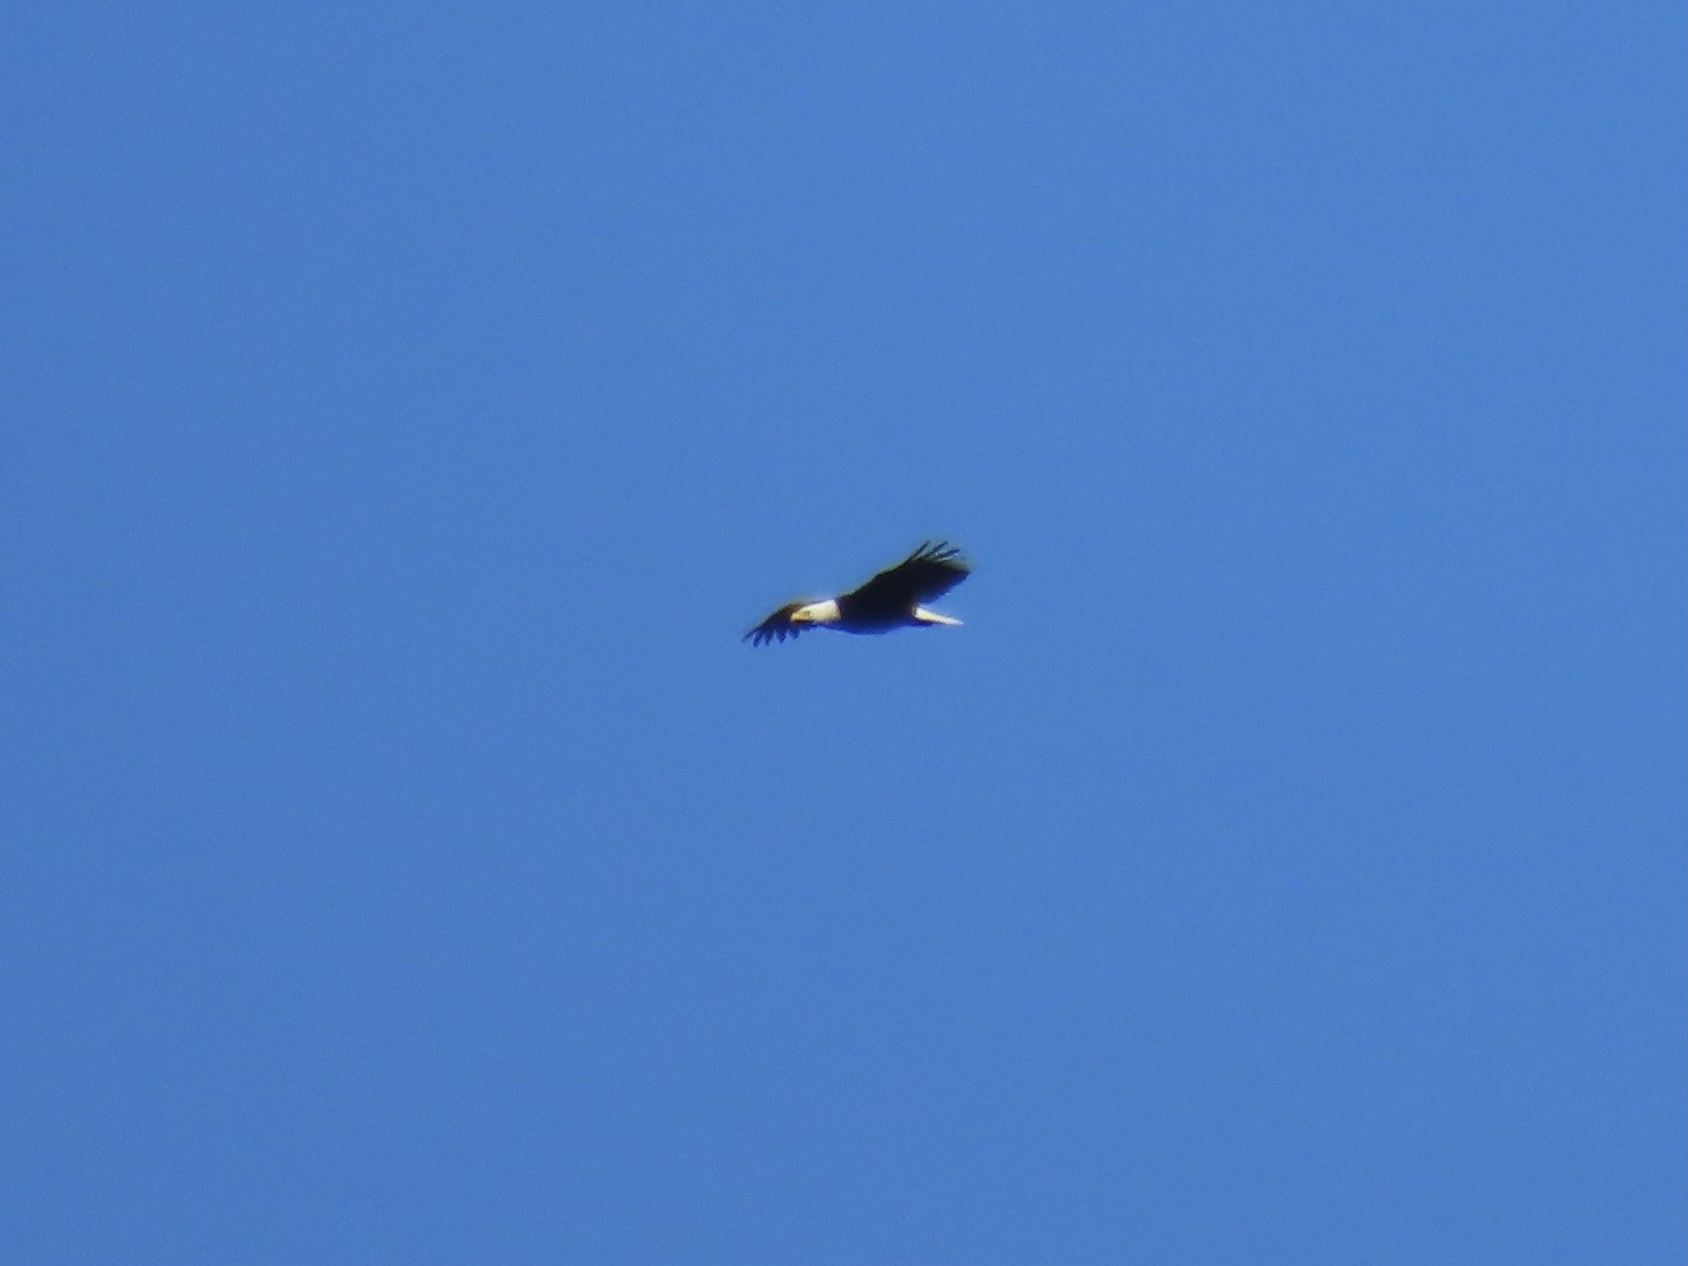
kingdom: Animalia
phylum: Chordata
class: Aves
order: Accipitriformes
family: Accipitridae
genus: Haliaeetus
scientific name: Haliaeetus leucocephalus
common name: Bald eagle
